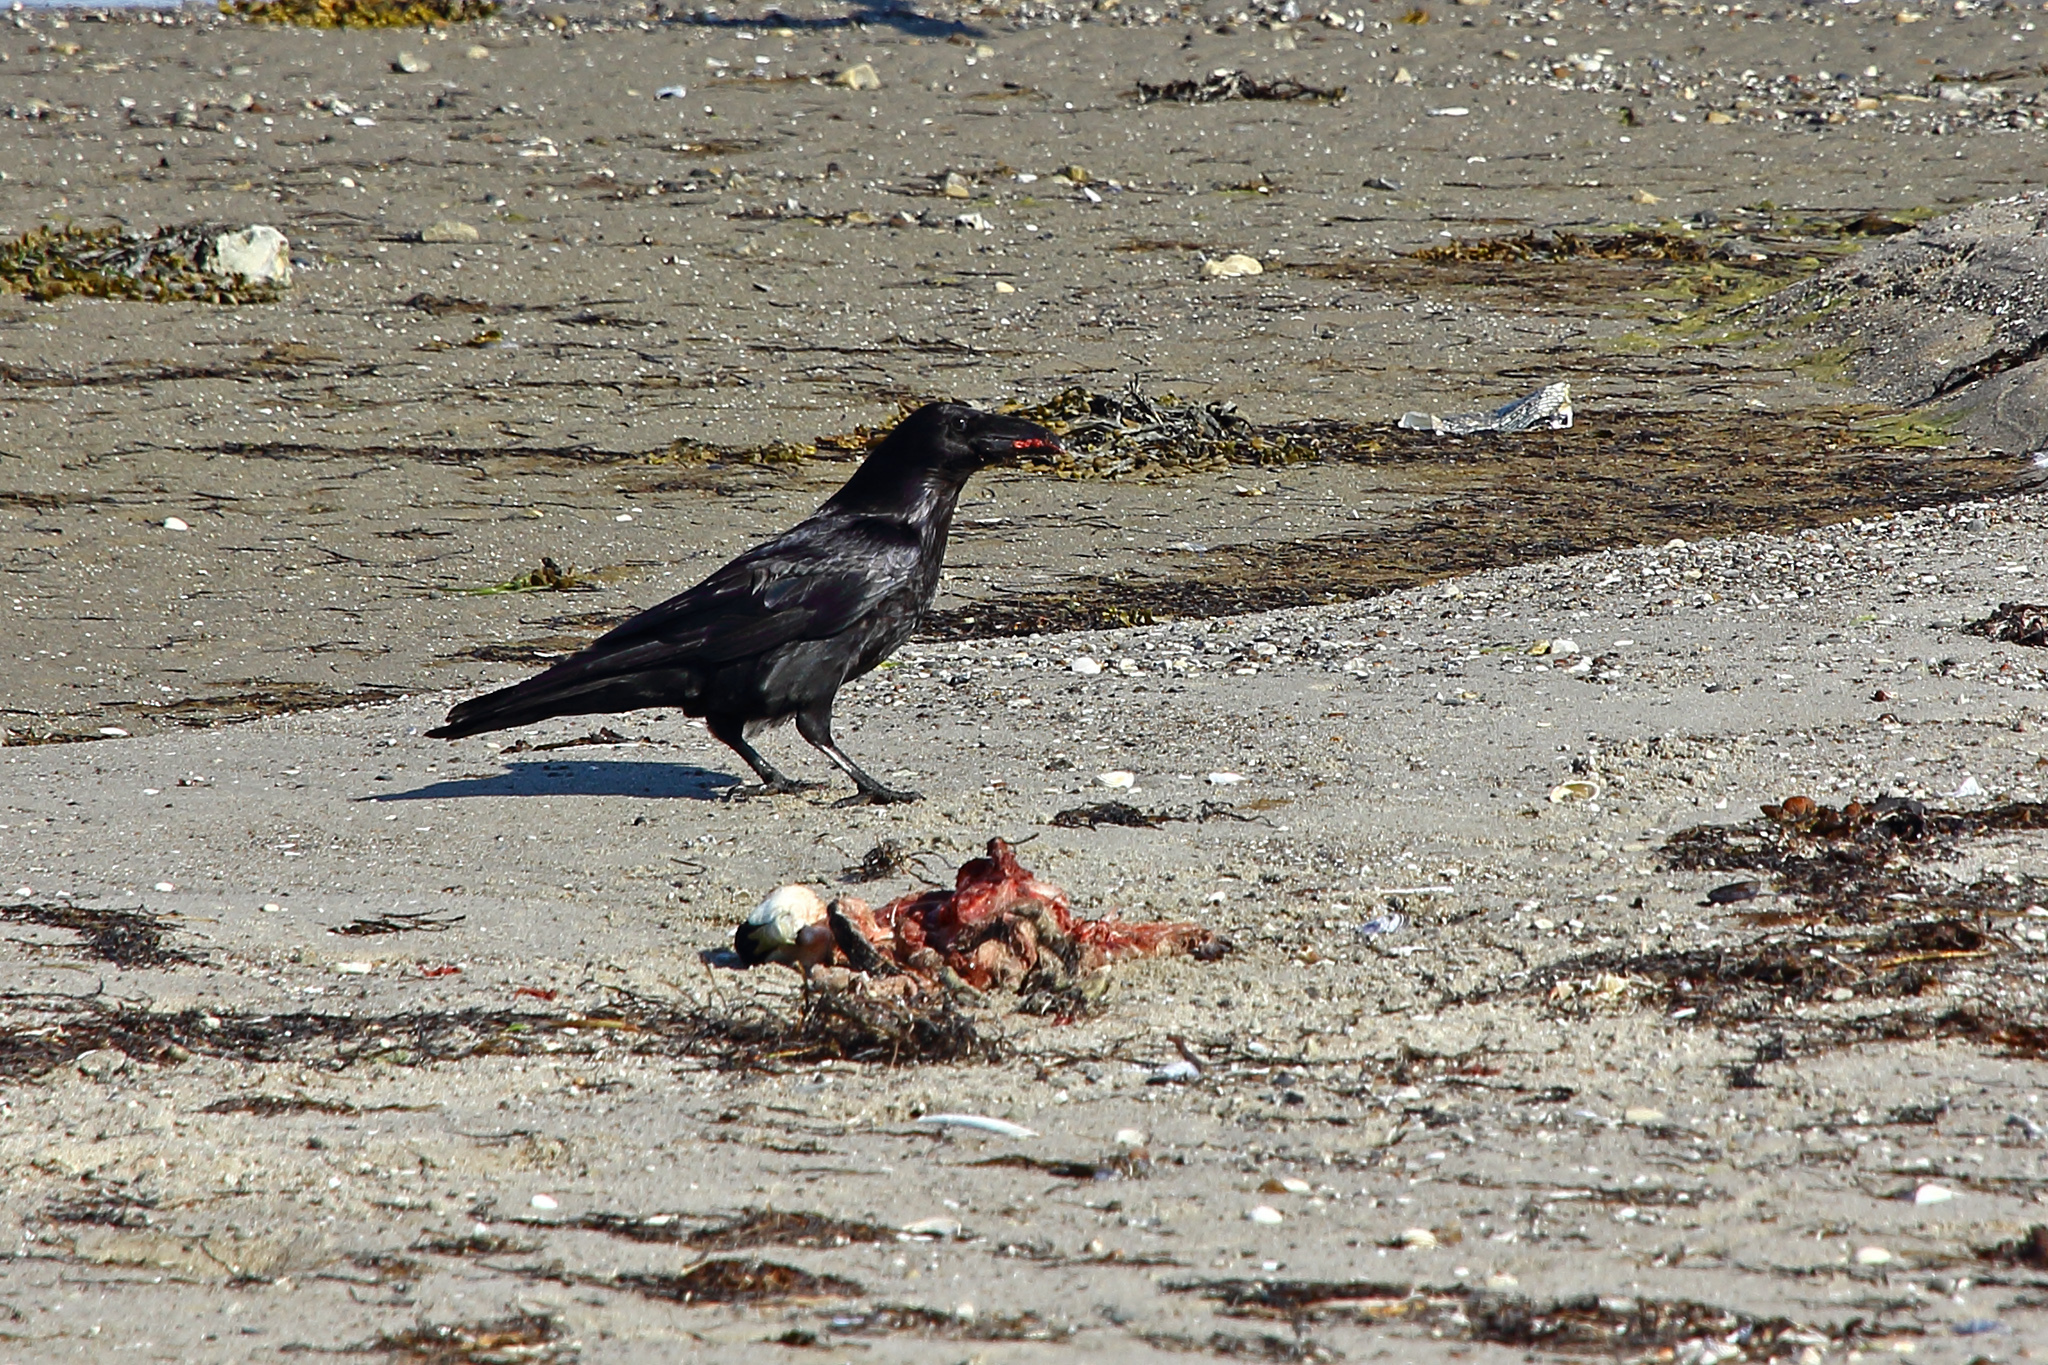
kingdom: Animalia
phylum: Chordata
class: Aves
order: Passeriformes
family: Corvidae
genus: Corvus
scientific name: Corvus corone
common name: Carrion crow
